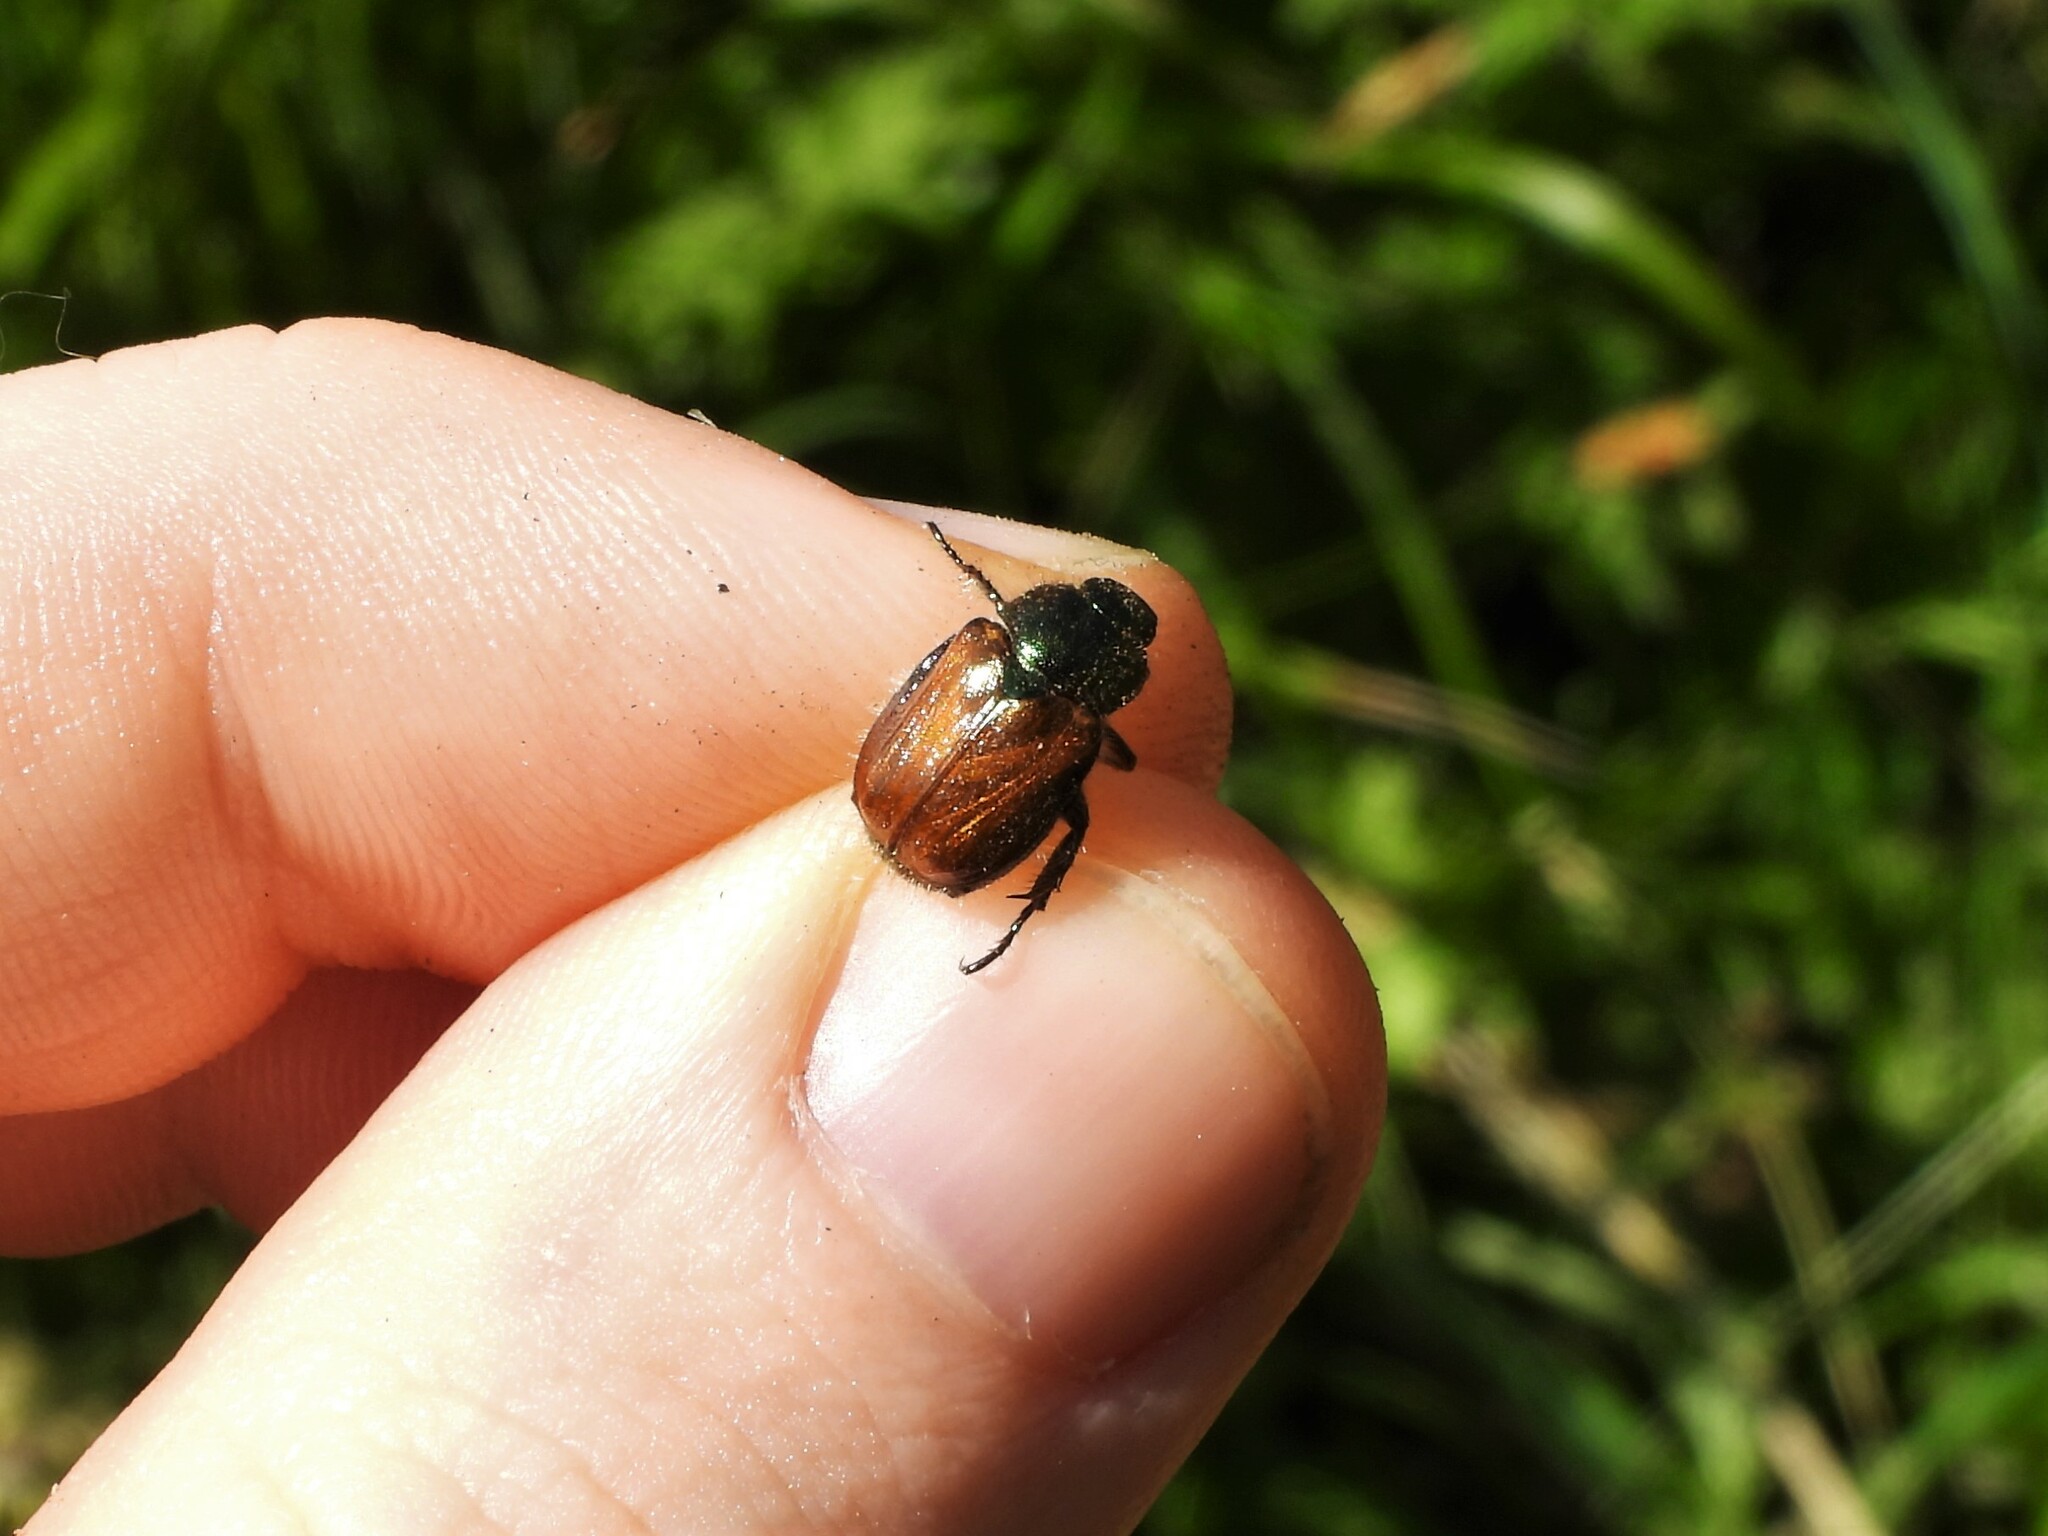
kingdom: Animalia
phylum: Arthropoda
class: Insecta
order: Coleoptera
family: Scarabaeidae
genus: Phyllopertha
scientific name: Phyllopertha horticola
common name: Garden chafer
